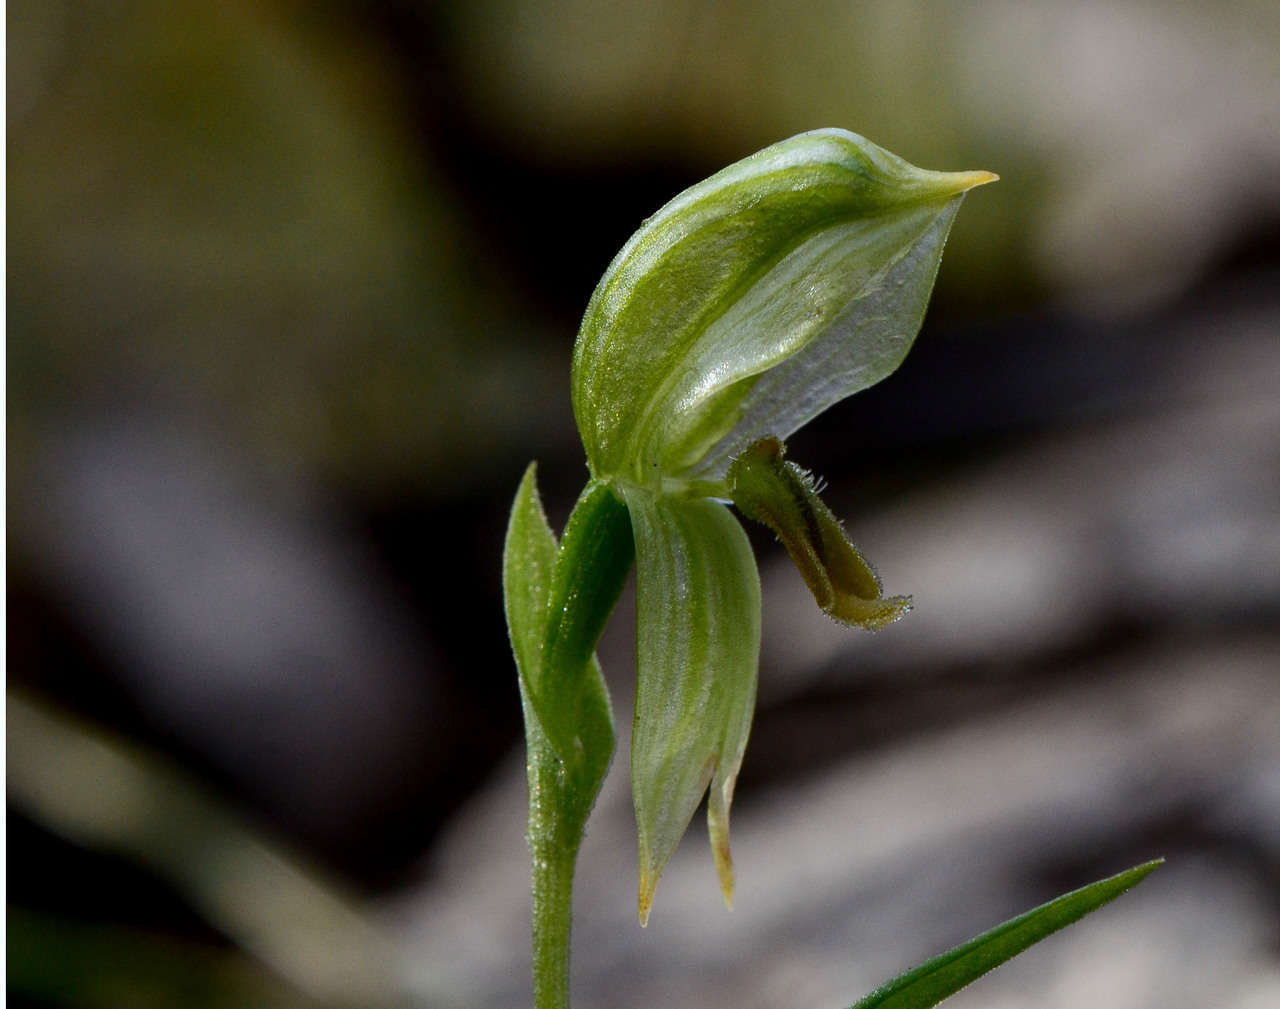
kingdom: Plantae
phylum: Tracheophyta
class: Liliopsida
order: Asparagales
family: Orchidaceae
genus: Pterostylis
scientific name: Pterostylis melagramma
